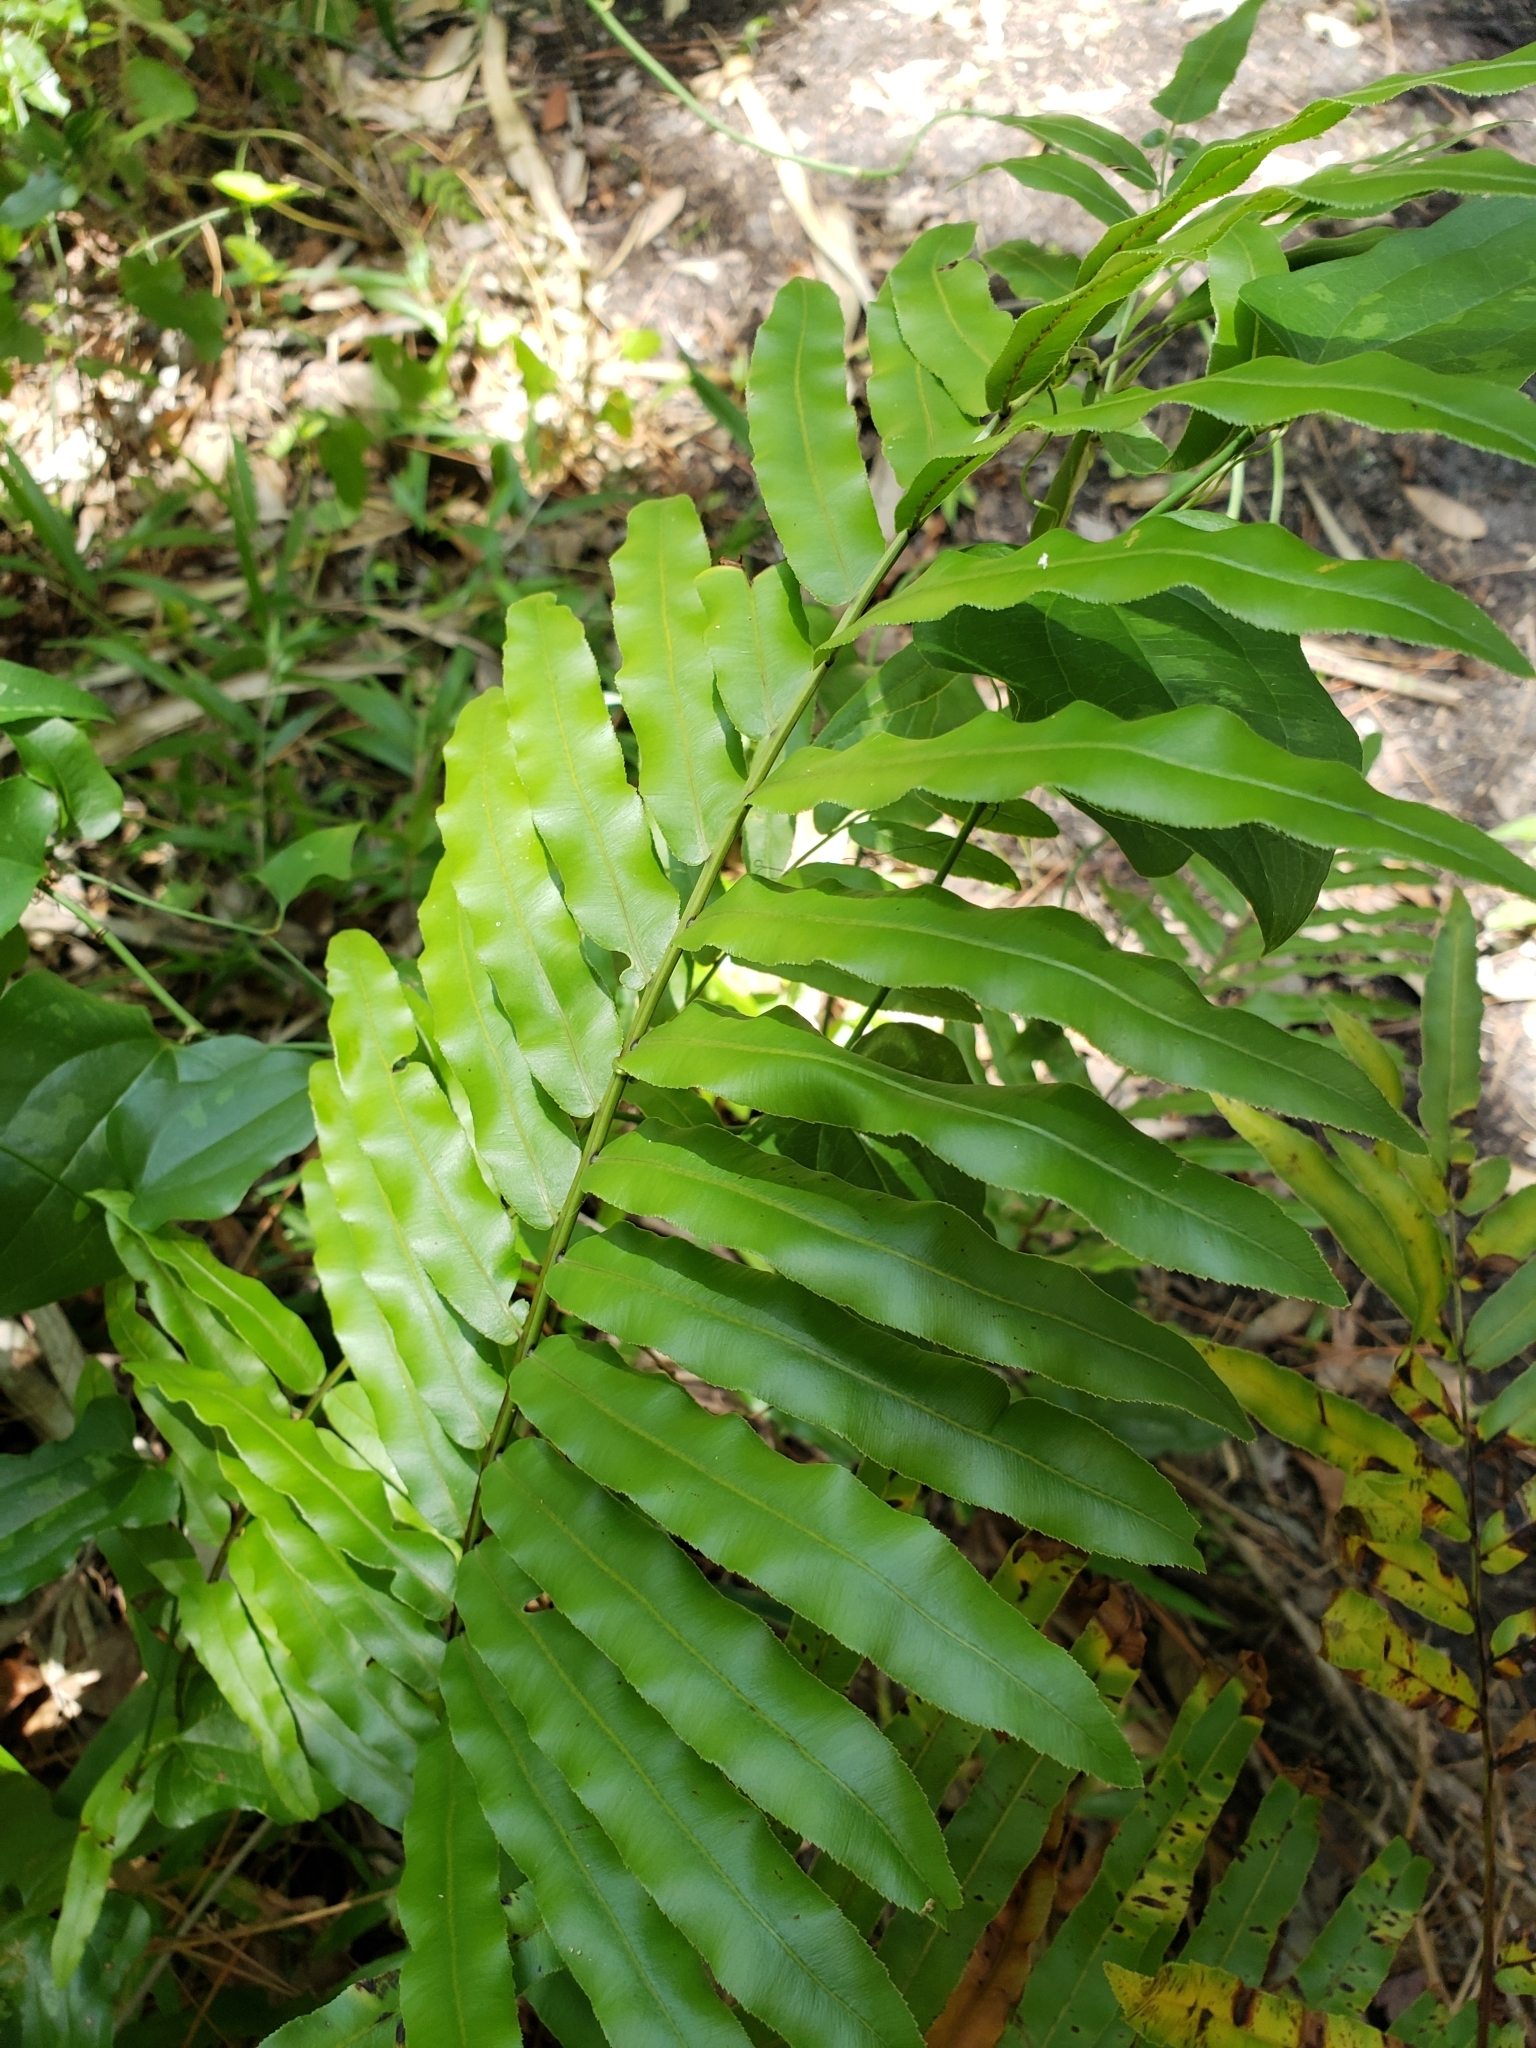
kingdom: Plantae
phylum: Tracheophyta
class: Polypodiopsida
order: Polypodiales
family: Blechnaceae
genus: Telmatoblechnum
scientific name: Telmatoblechnum serrulatum
